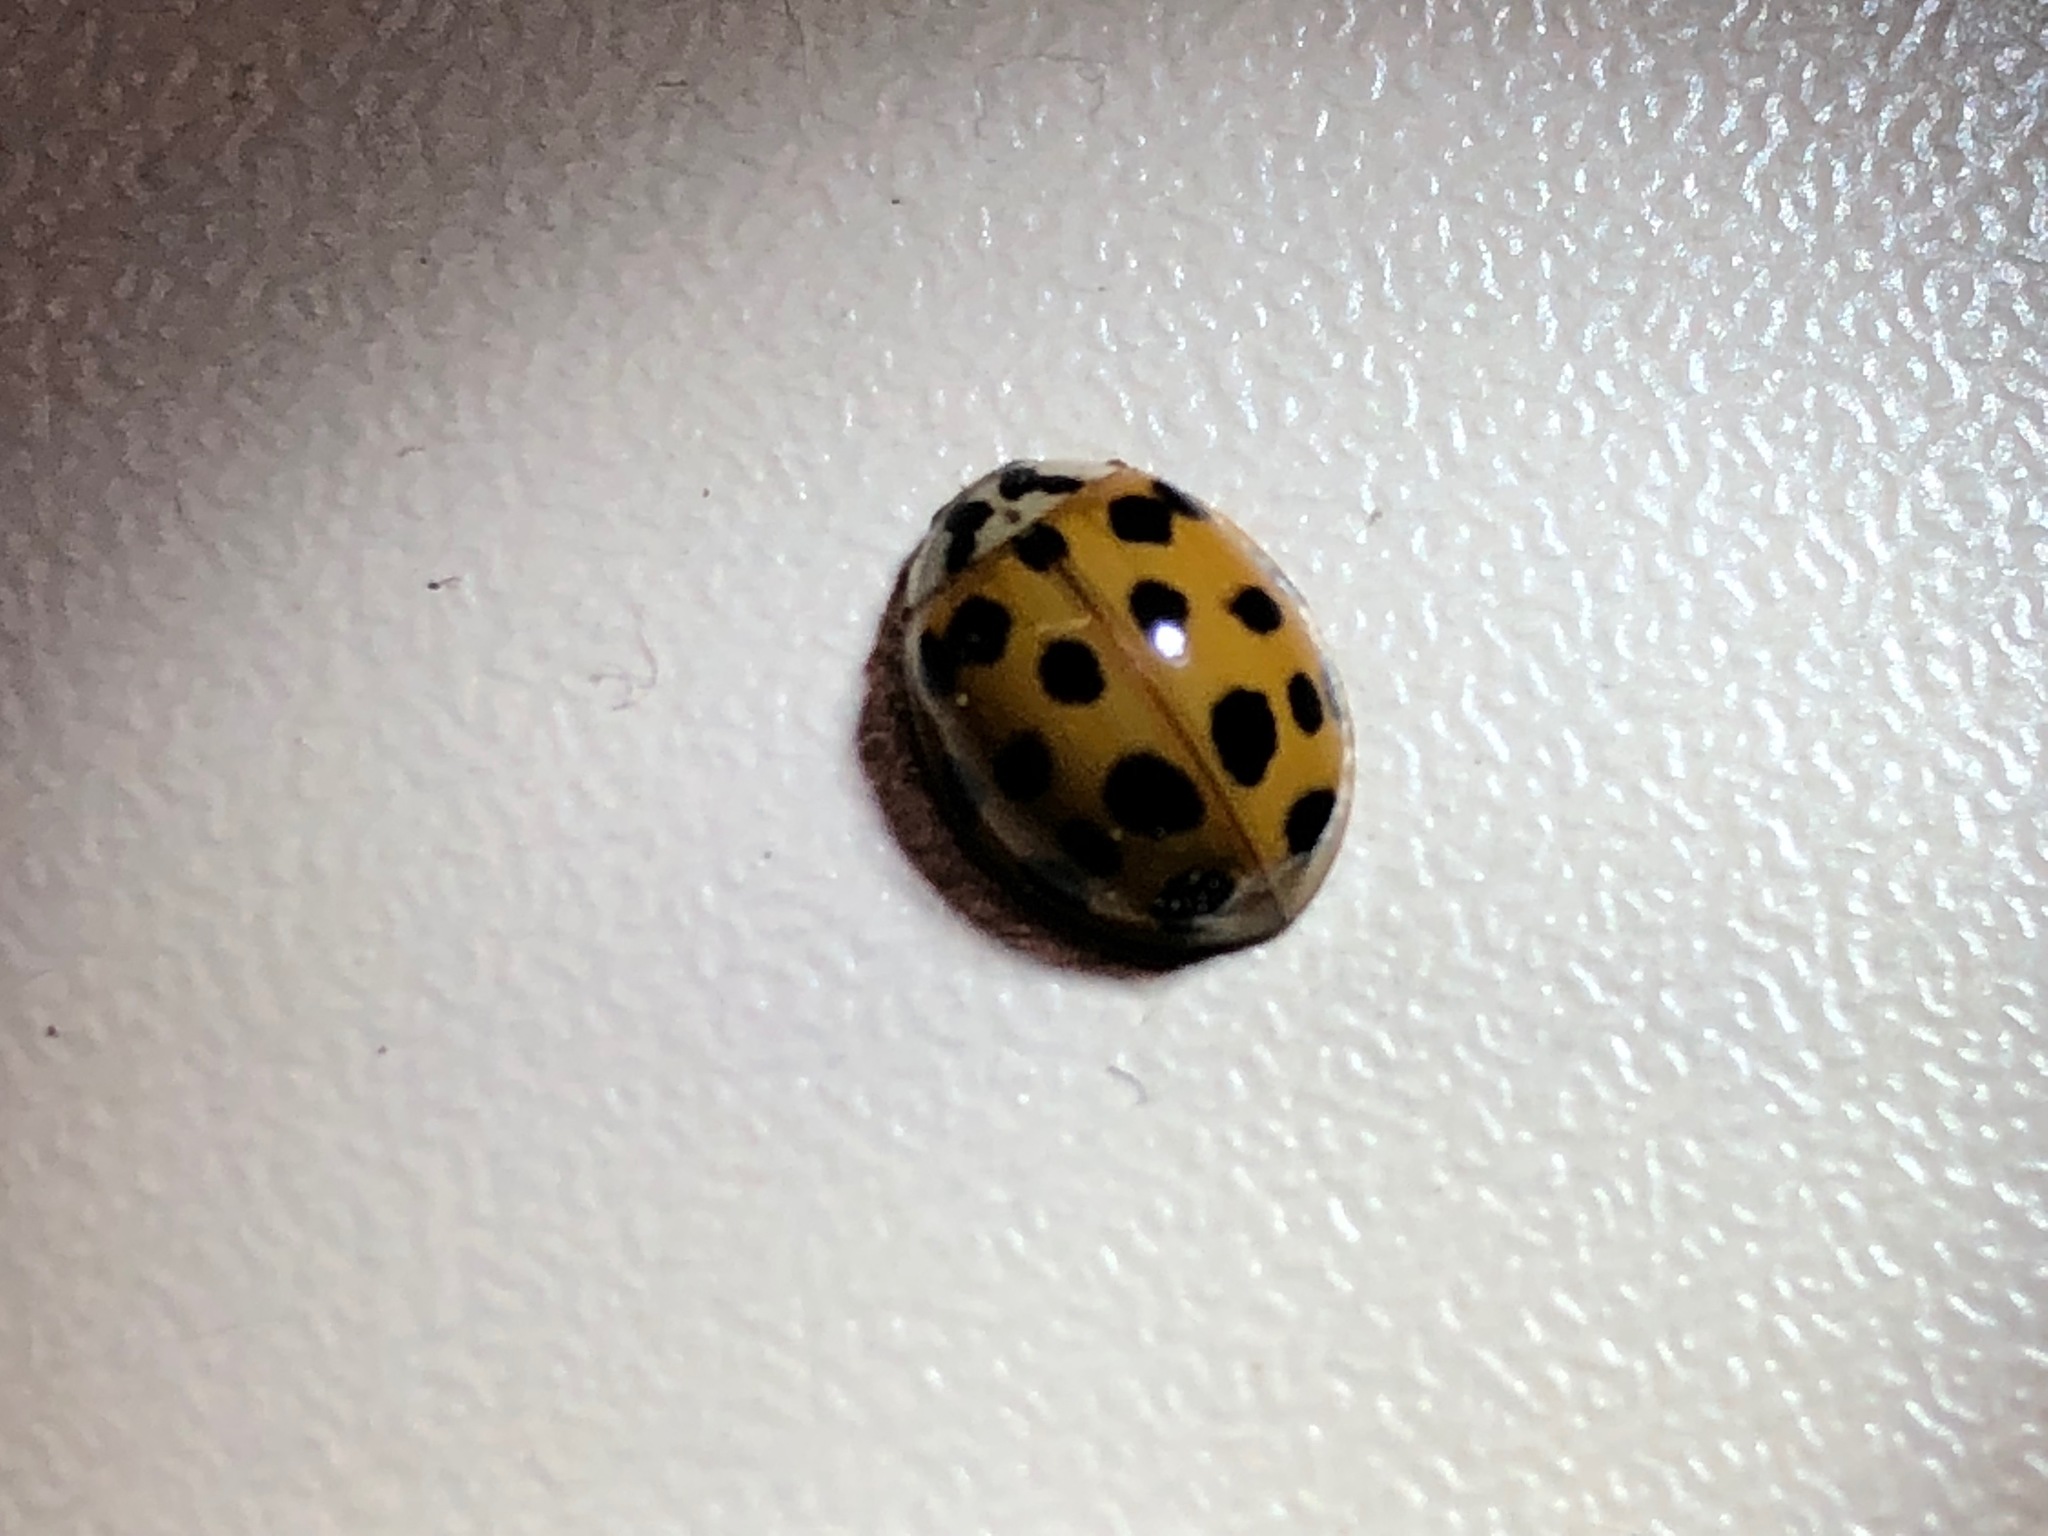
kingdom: Animalia
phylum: Arthropoda
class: Insecta
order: Coleoptera
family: Coccinellidae
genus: Harmonia
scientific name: Harmonia axyridis
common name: Harlequin ladybird
